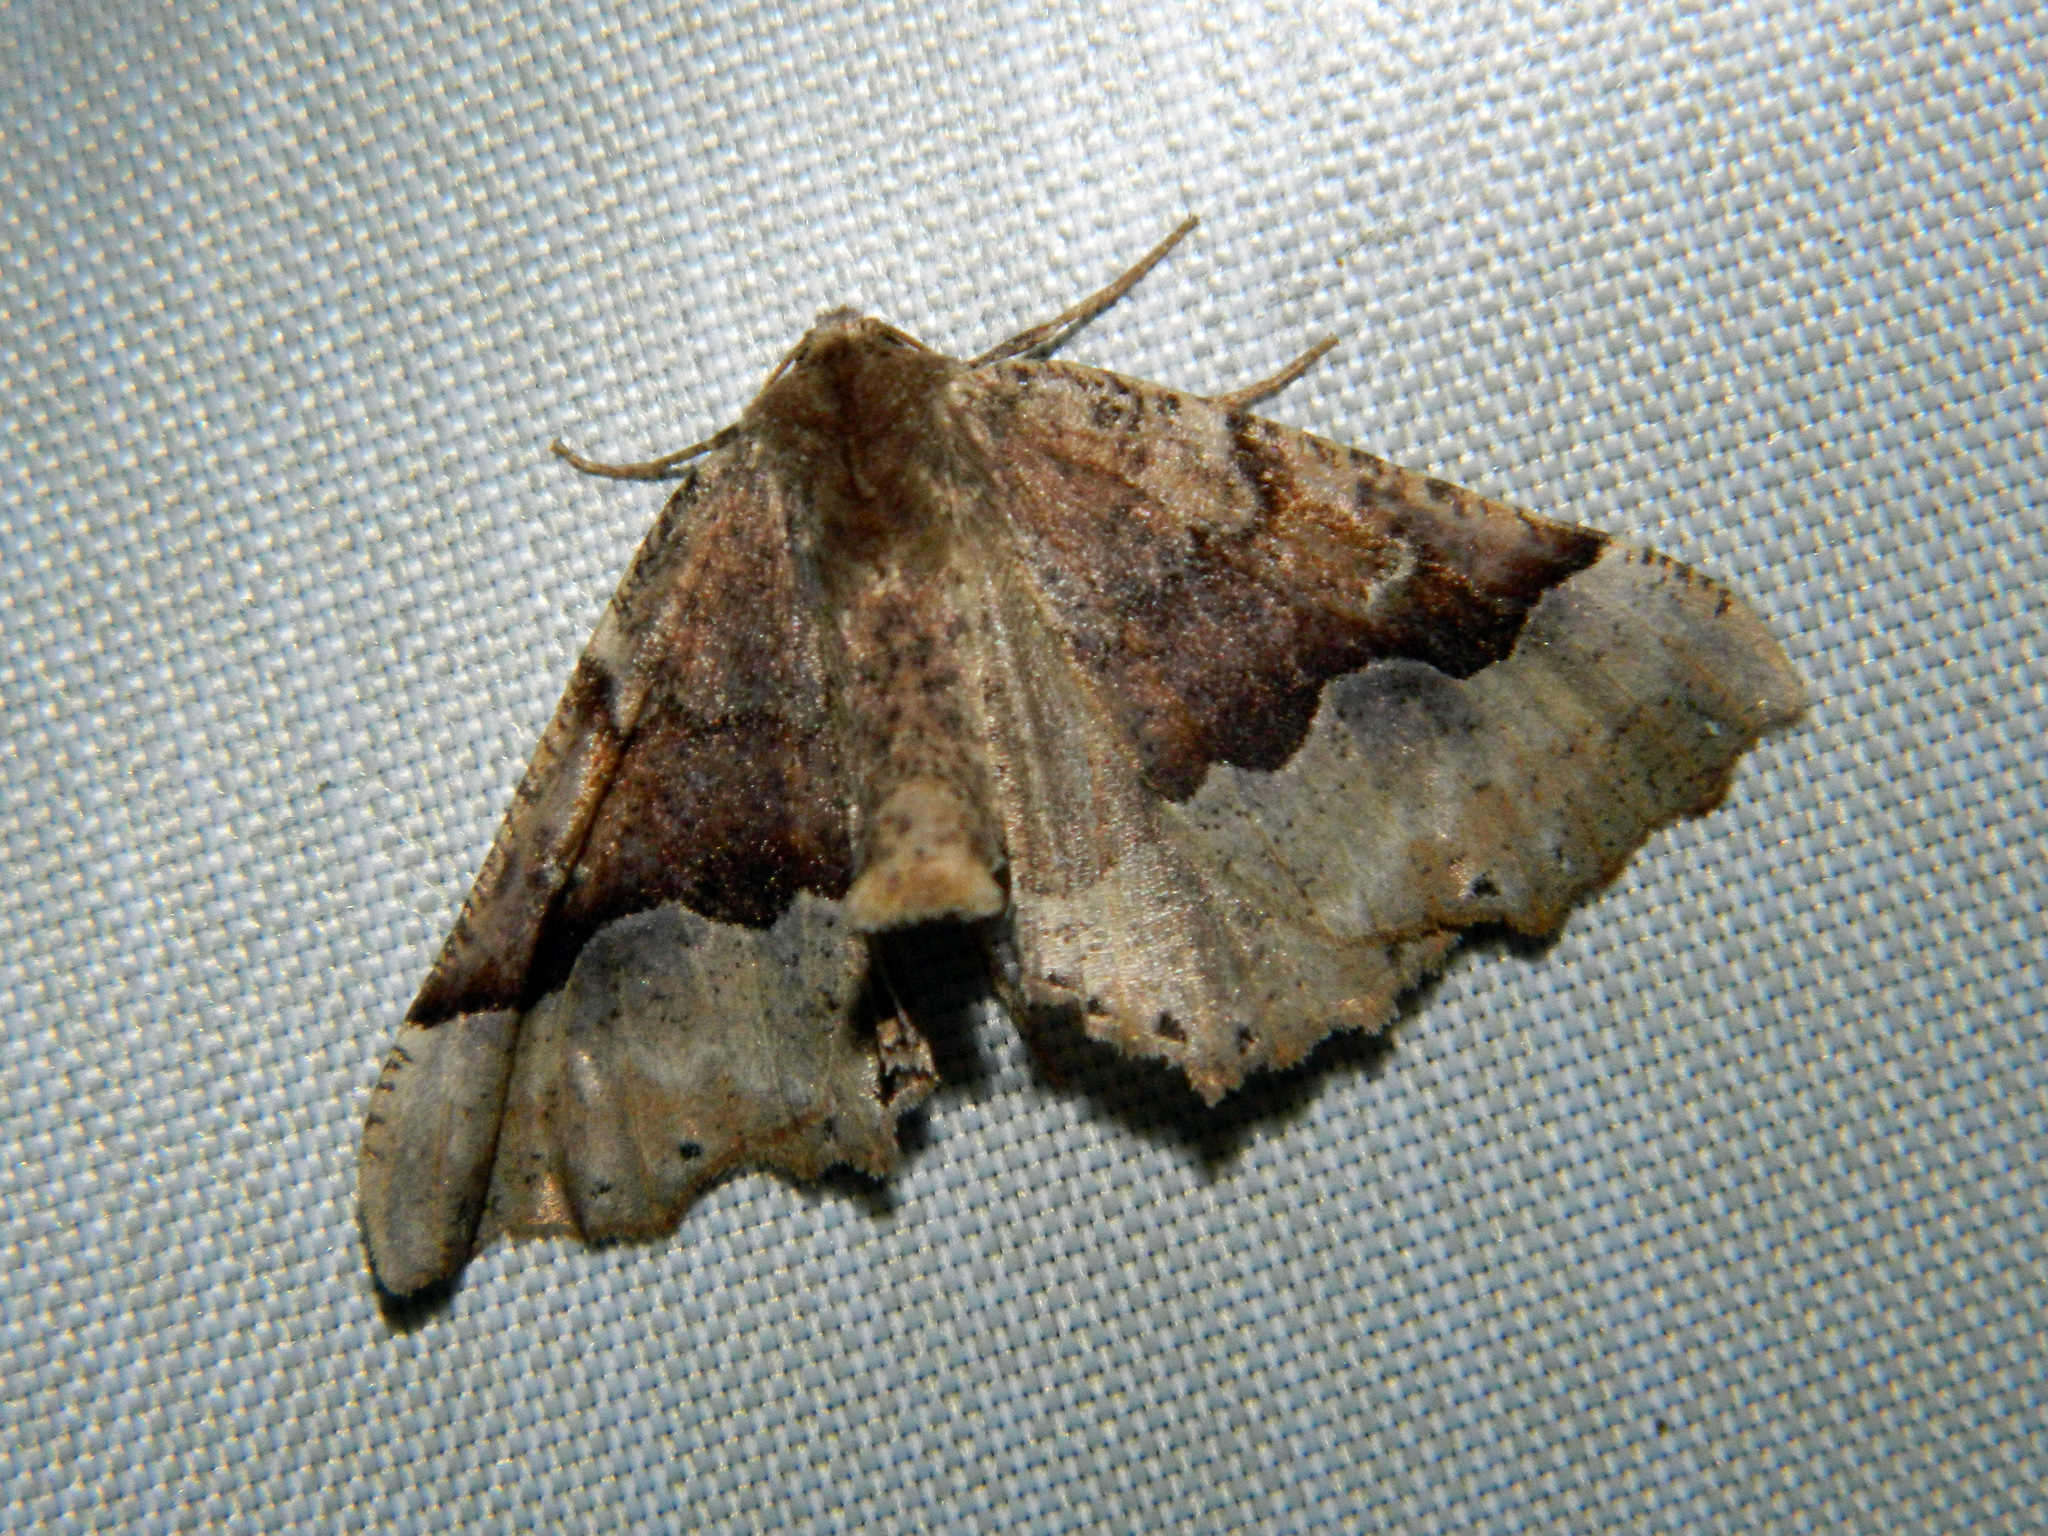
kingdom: Animalia
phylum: Arthropoda
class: Insecta
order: Lepidoptera
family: Geometridae
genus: Pero
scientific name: Pero morrisonaria
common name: Morrison's pero
